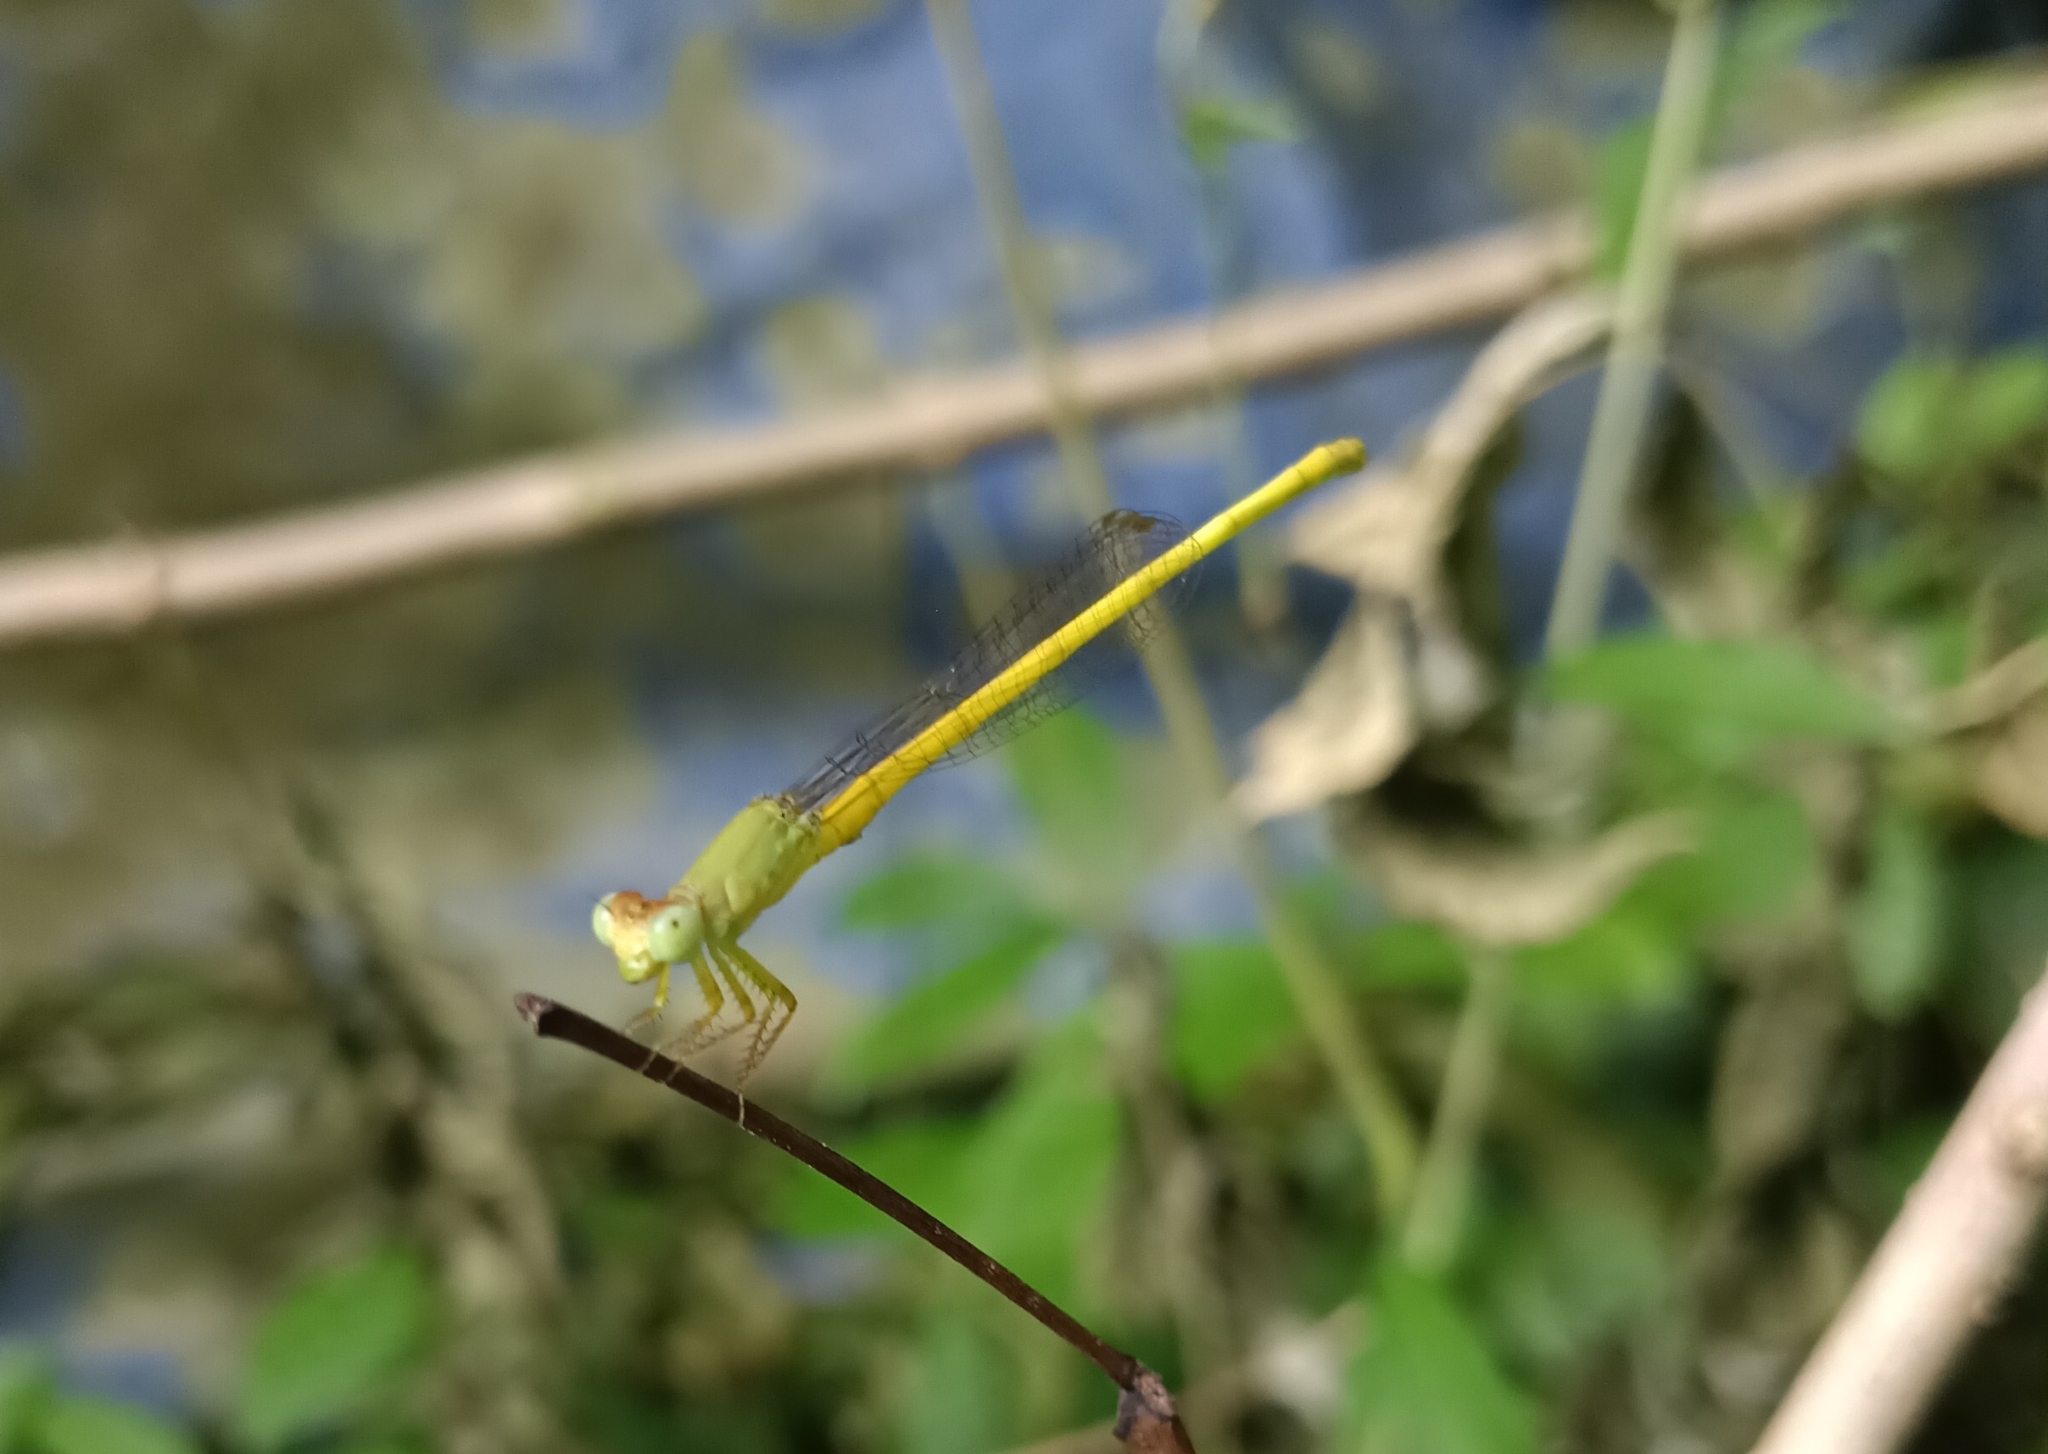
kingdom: Animalia
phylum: Arthropoda
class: Insecta
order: Odonata
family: Coenagrionidae
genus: Ceriagrion
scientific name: Ceriagrion coromandelianum
